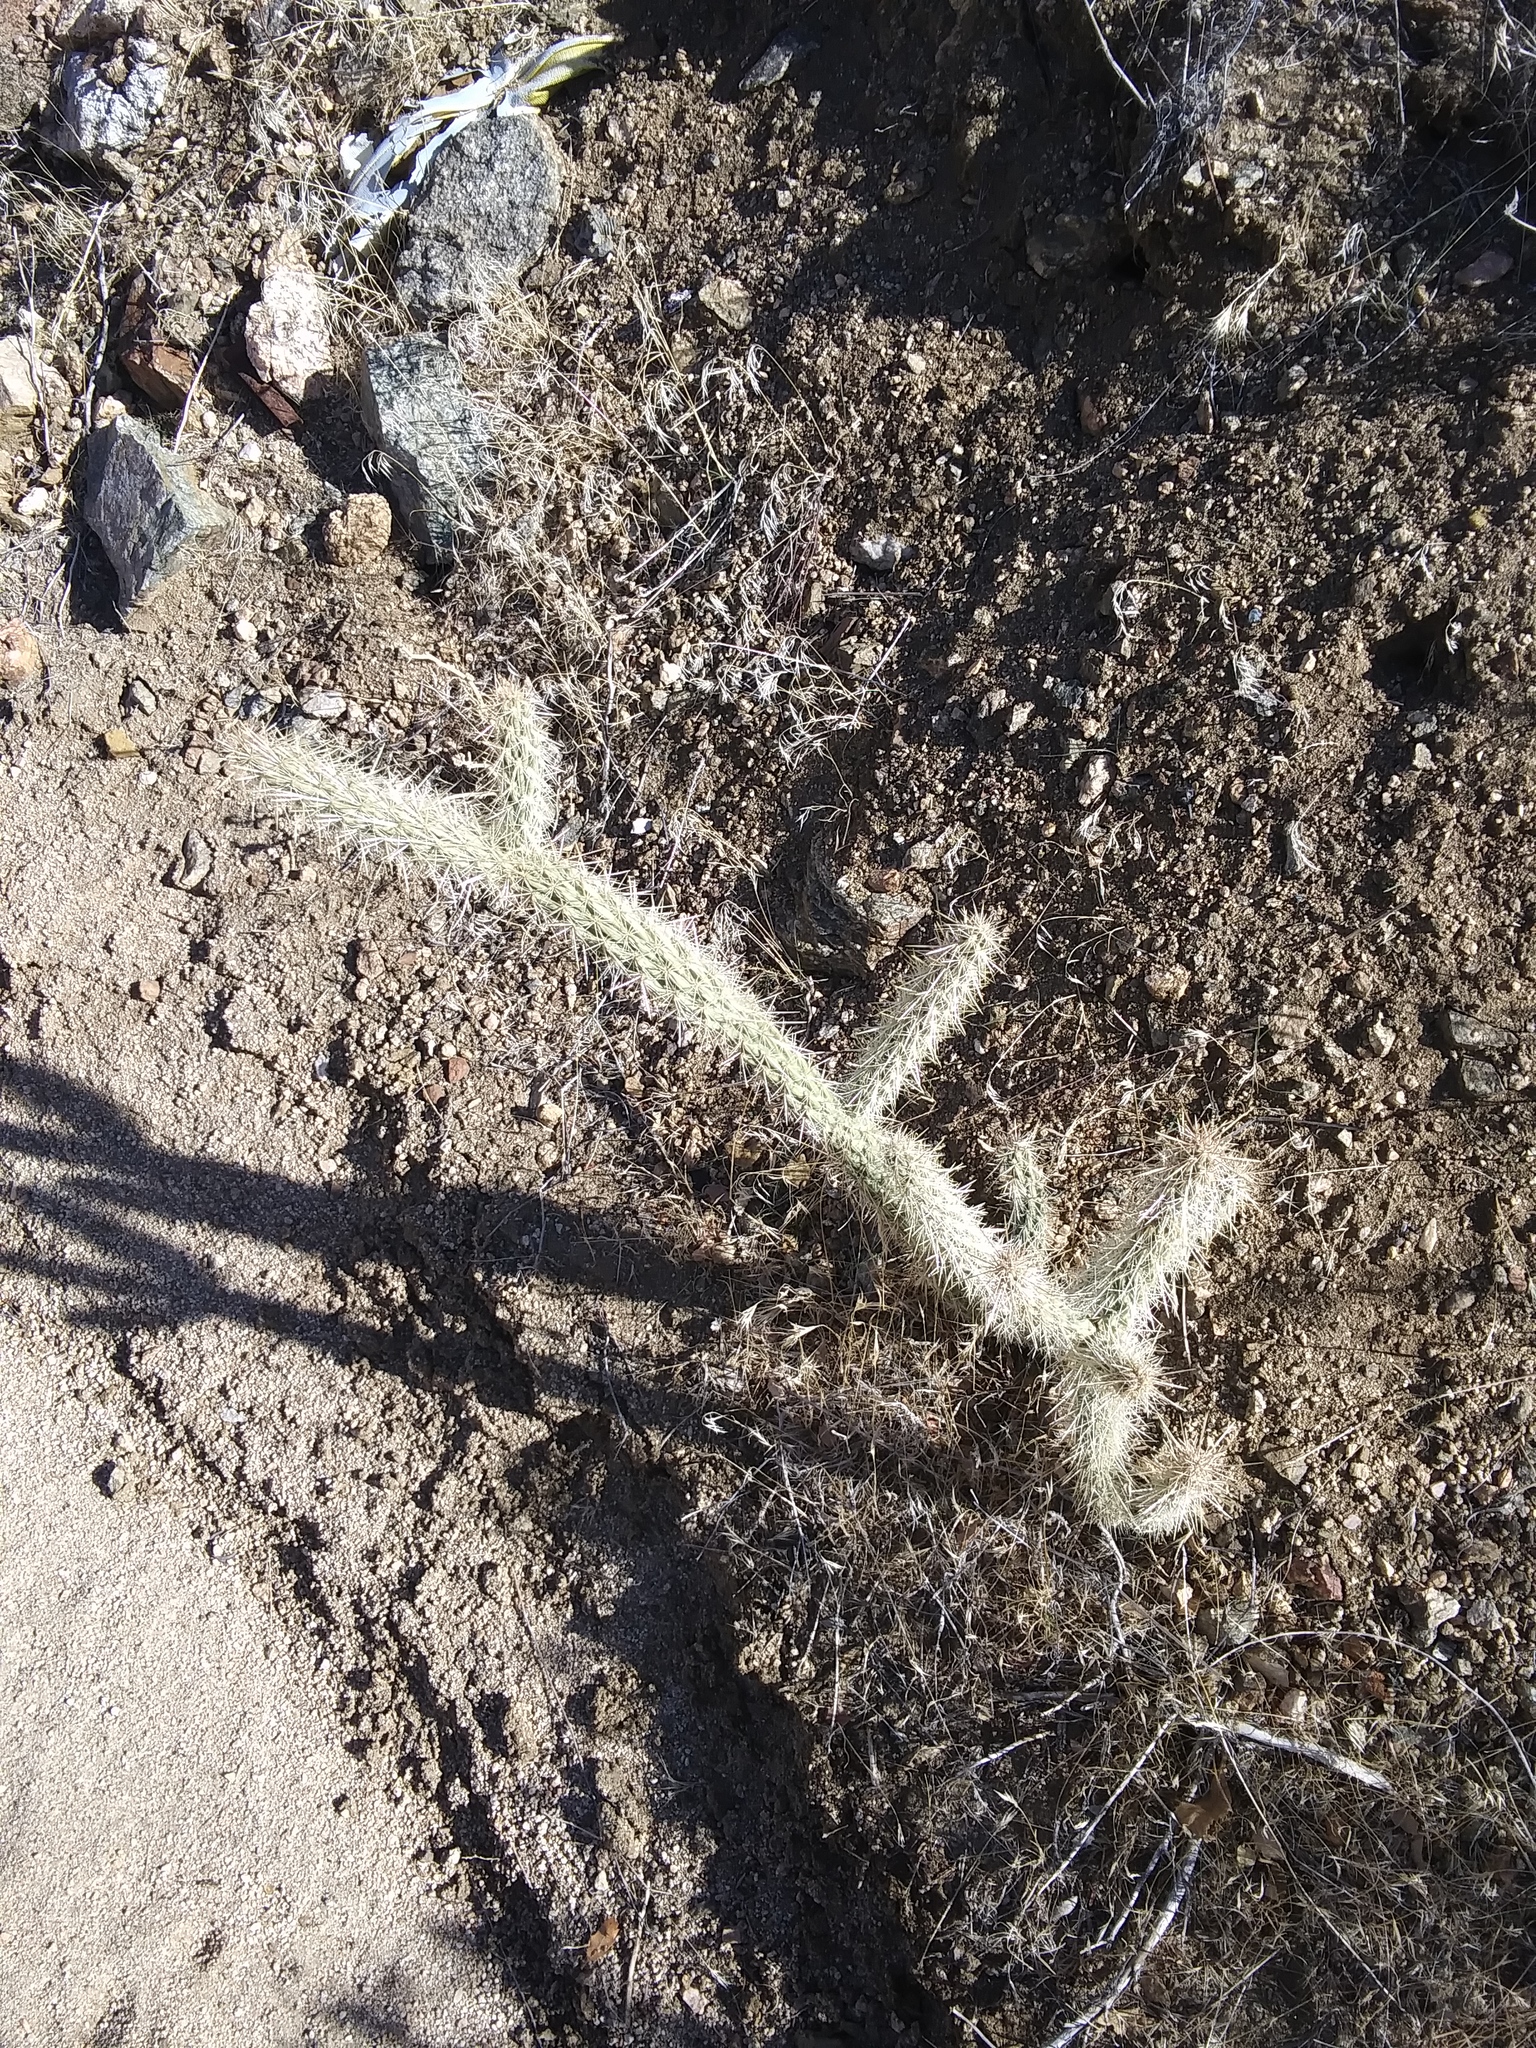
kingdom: Plantae
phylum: Tracheophyta
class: Magnoliopsida
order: Caryophyllales
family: Cactaceae
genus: Cylindropuntia
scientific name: Cylindropuntia ganderi
